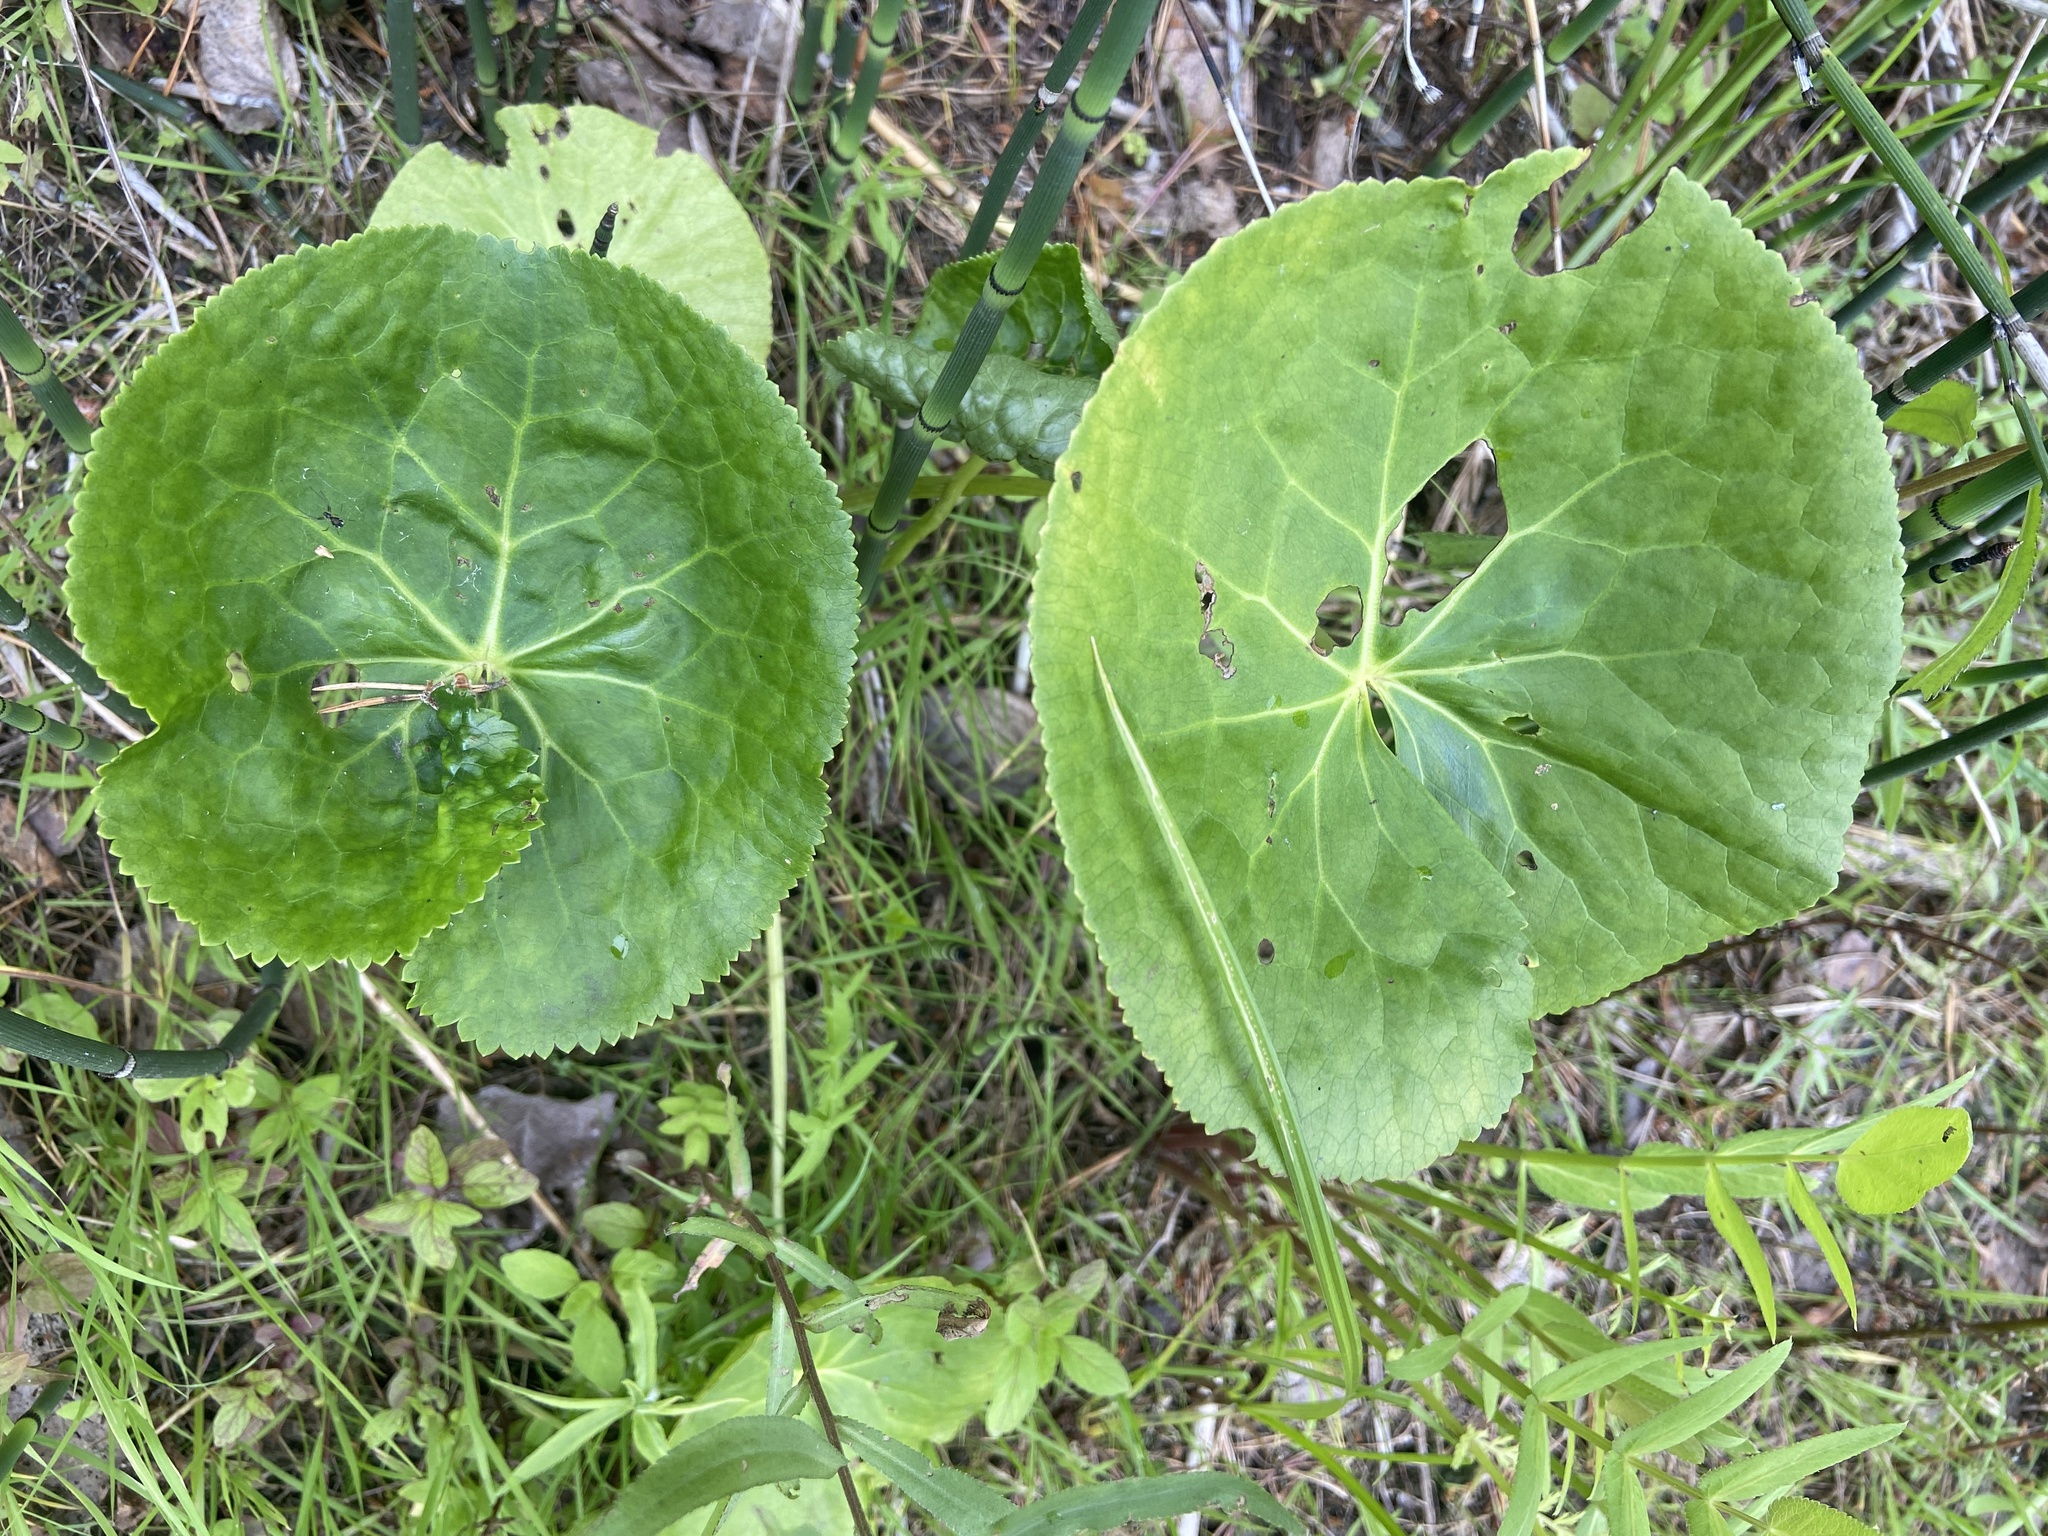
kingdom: Plantae
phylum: Tracheophyta
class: Magnoliopsida
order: Ranunculales
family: Ranunculaceae
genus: Caltha
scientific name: Caltha palustris
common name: Marsh marigold
